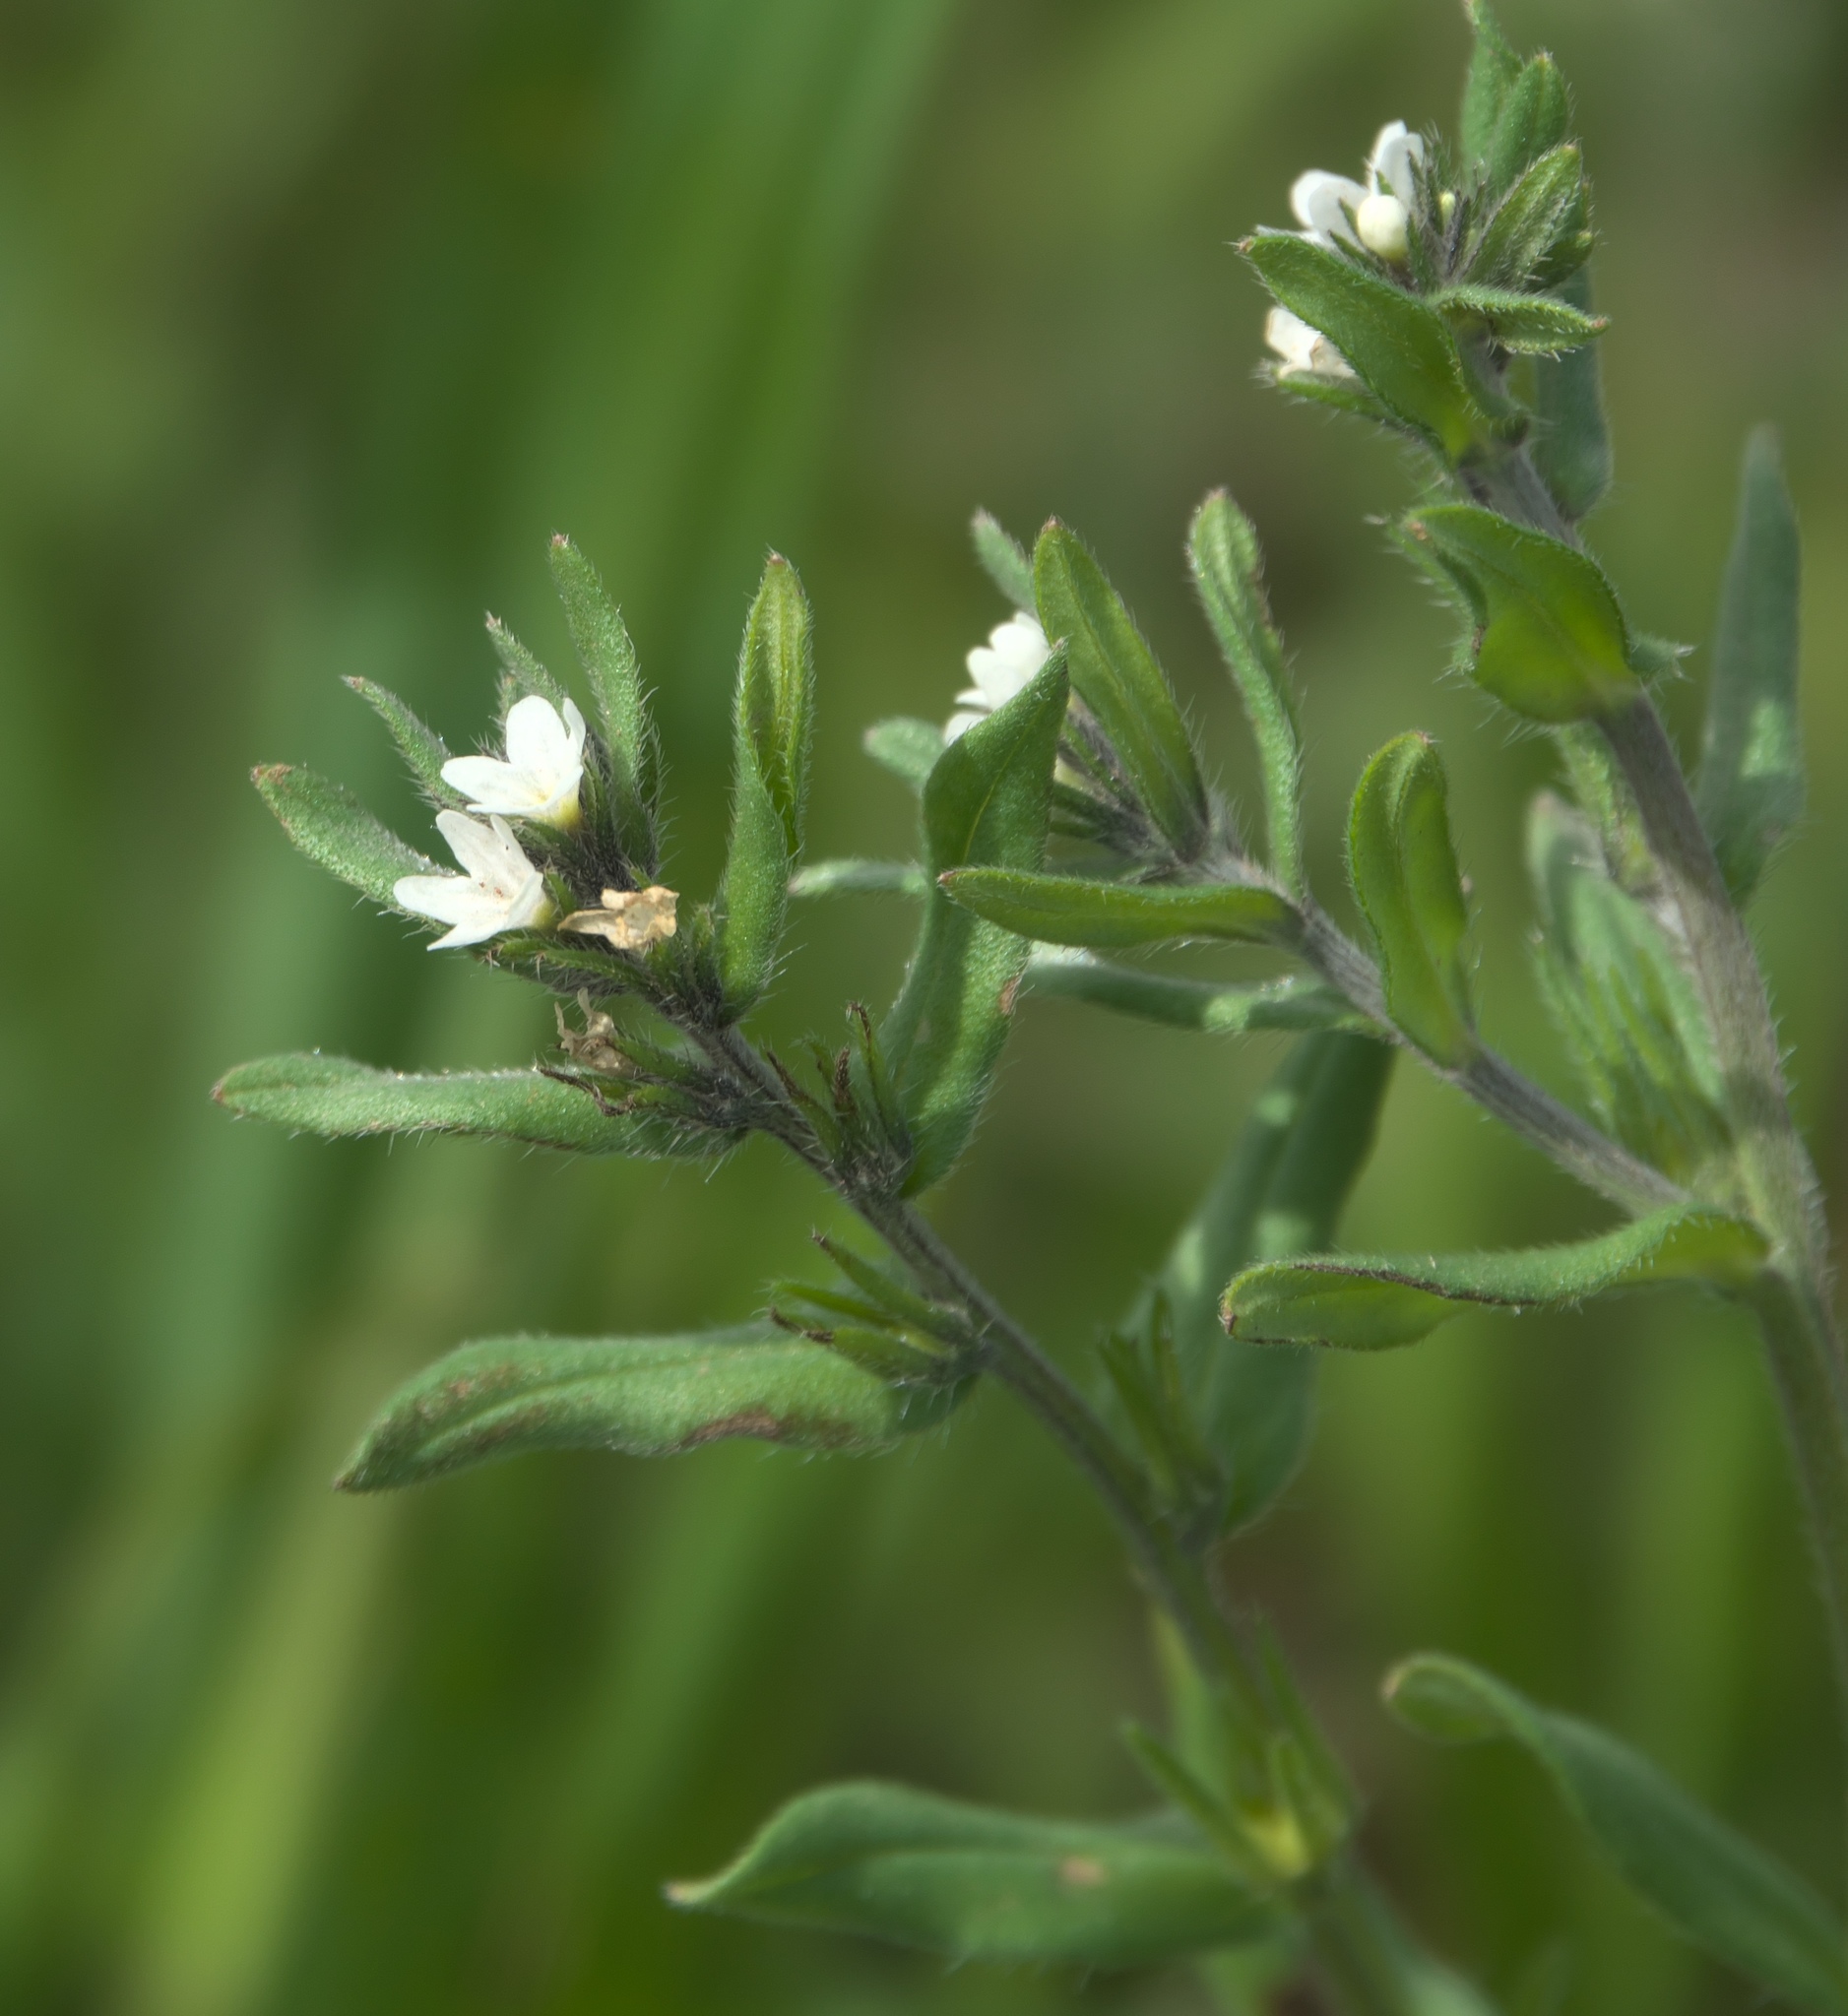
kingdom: Plantae
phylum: Tracheophyta
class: Magnoliopsida
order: Boraginales
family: Boraginaceae
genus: Buglossoides
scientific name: Buglossoides arvensis
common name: Corn gromwell
